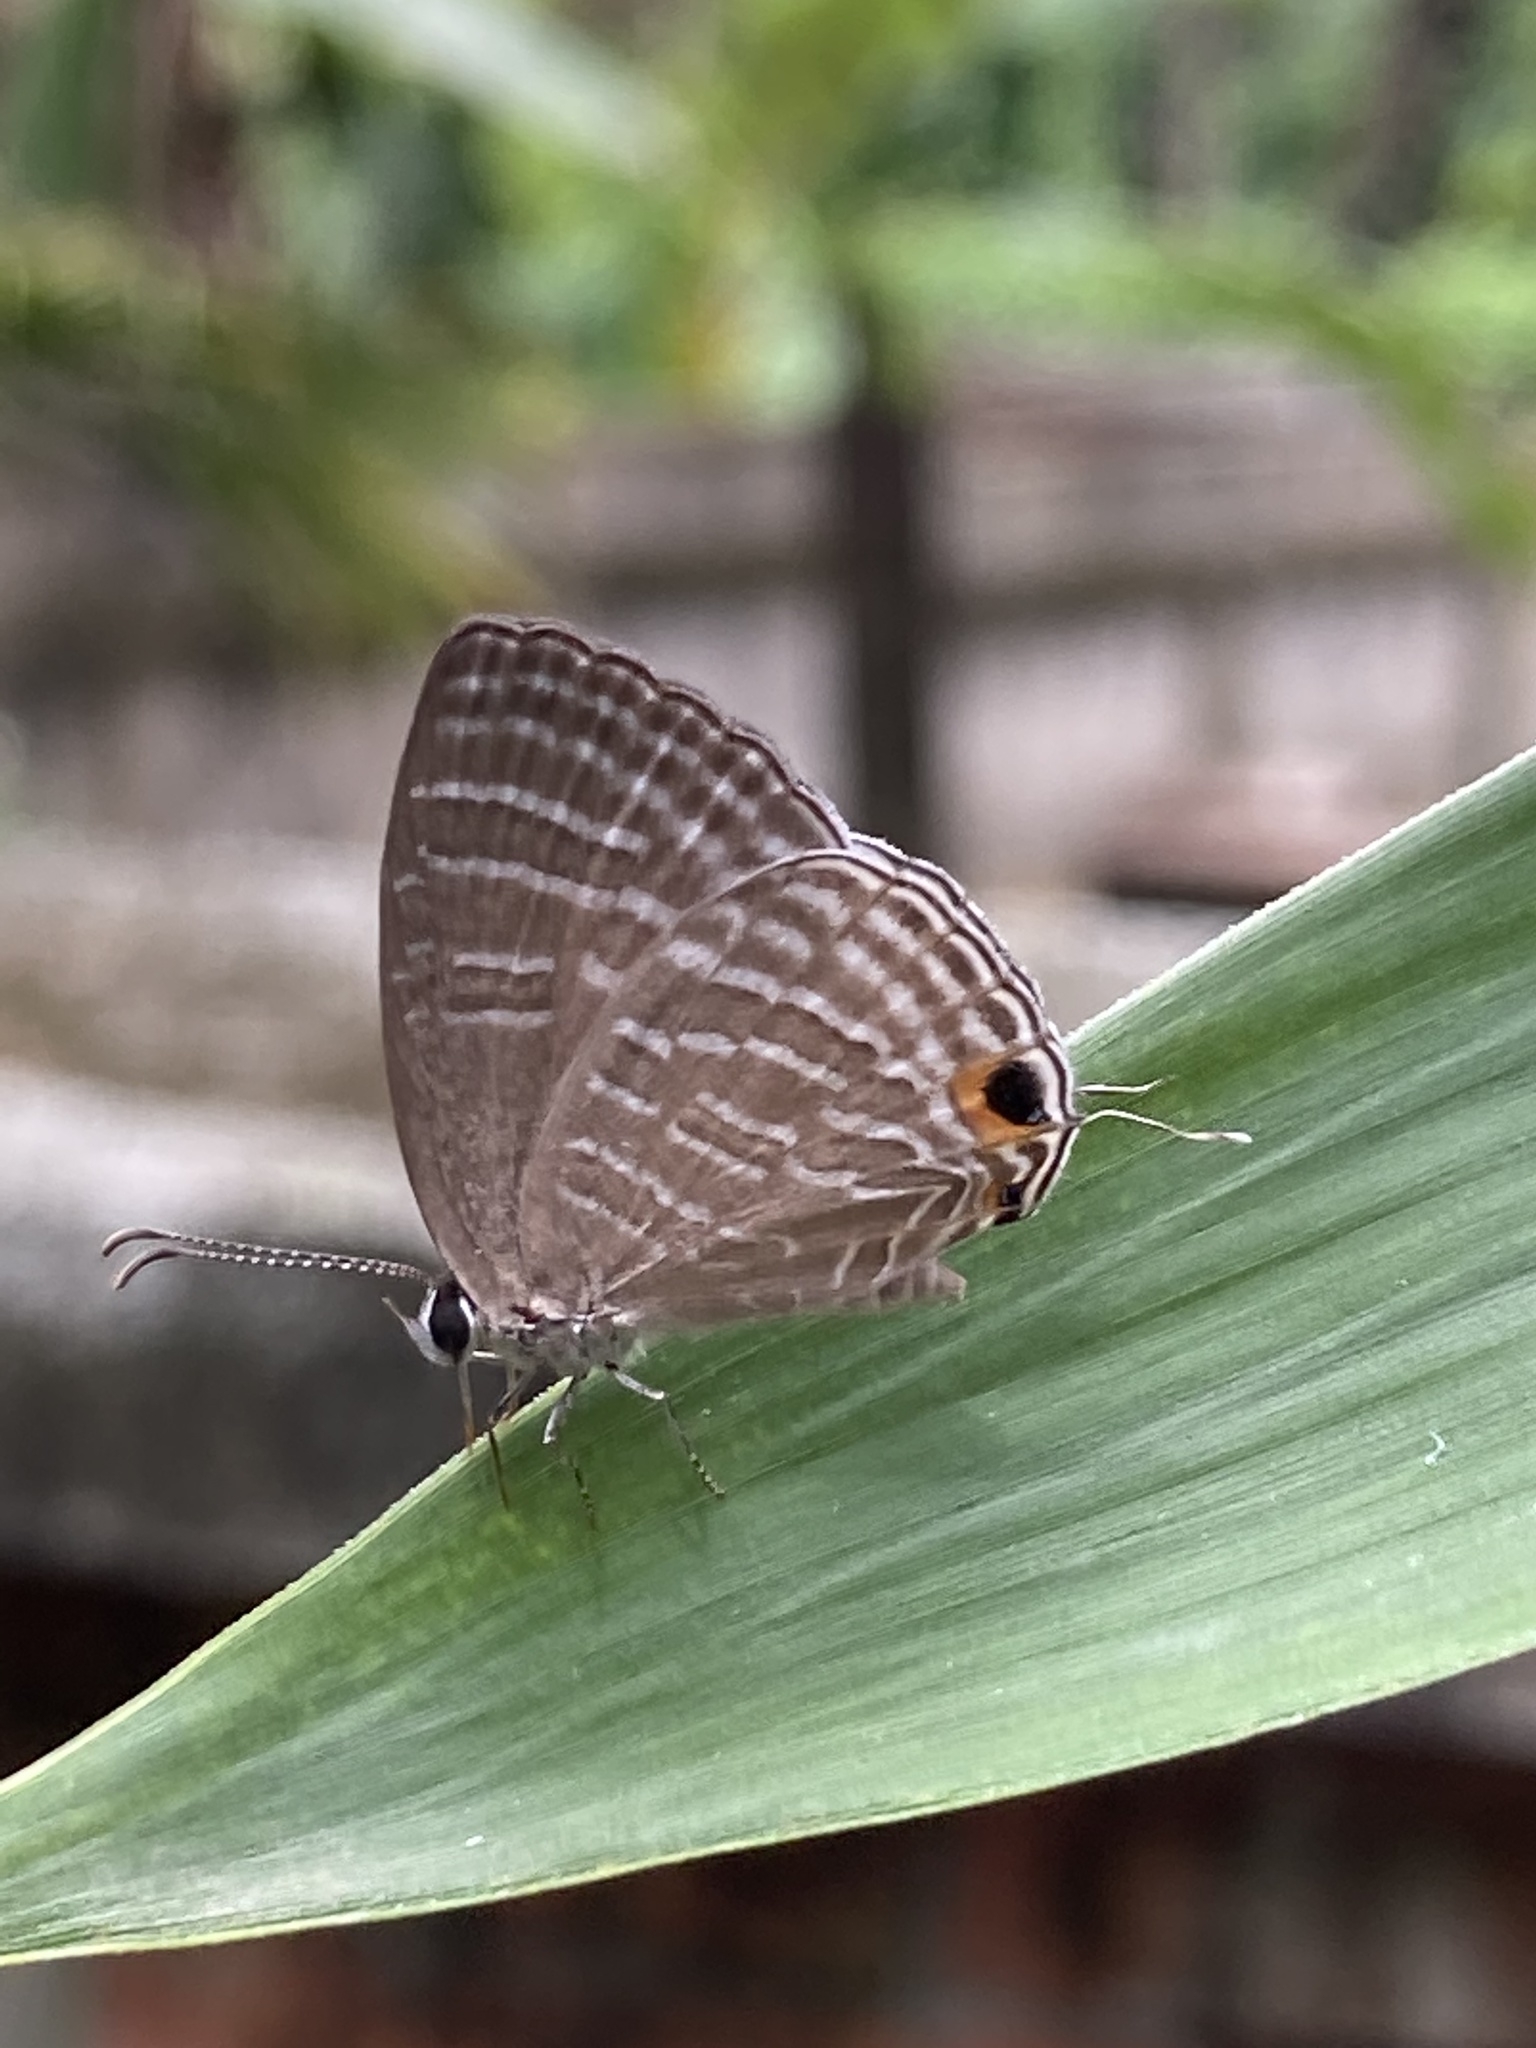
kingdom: Animalia
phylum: Arthropoda
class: Insecta
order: Lepidoptera
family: Lycaenidae
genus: Jamides
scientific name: Jamides celeno
